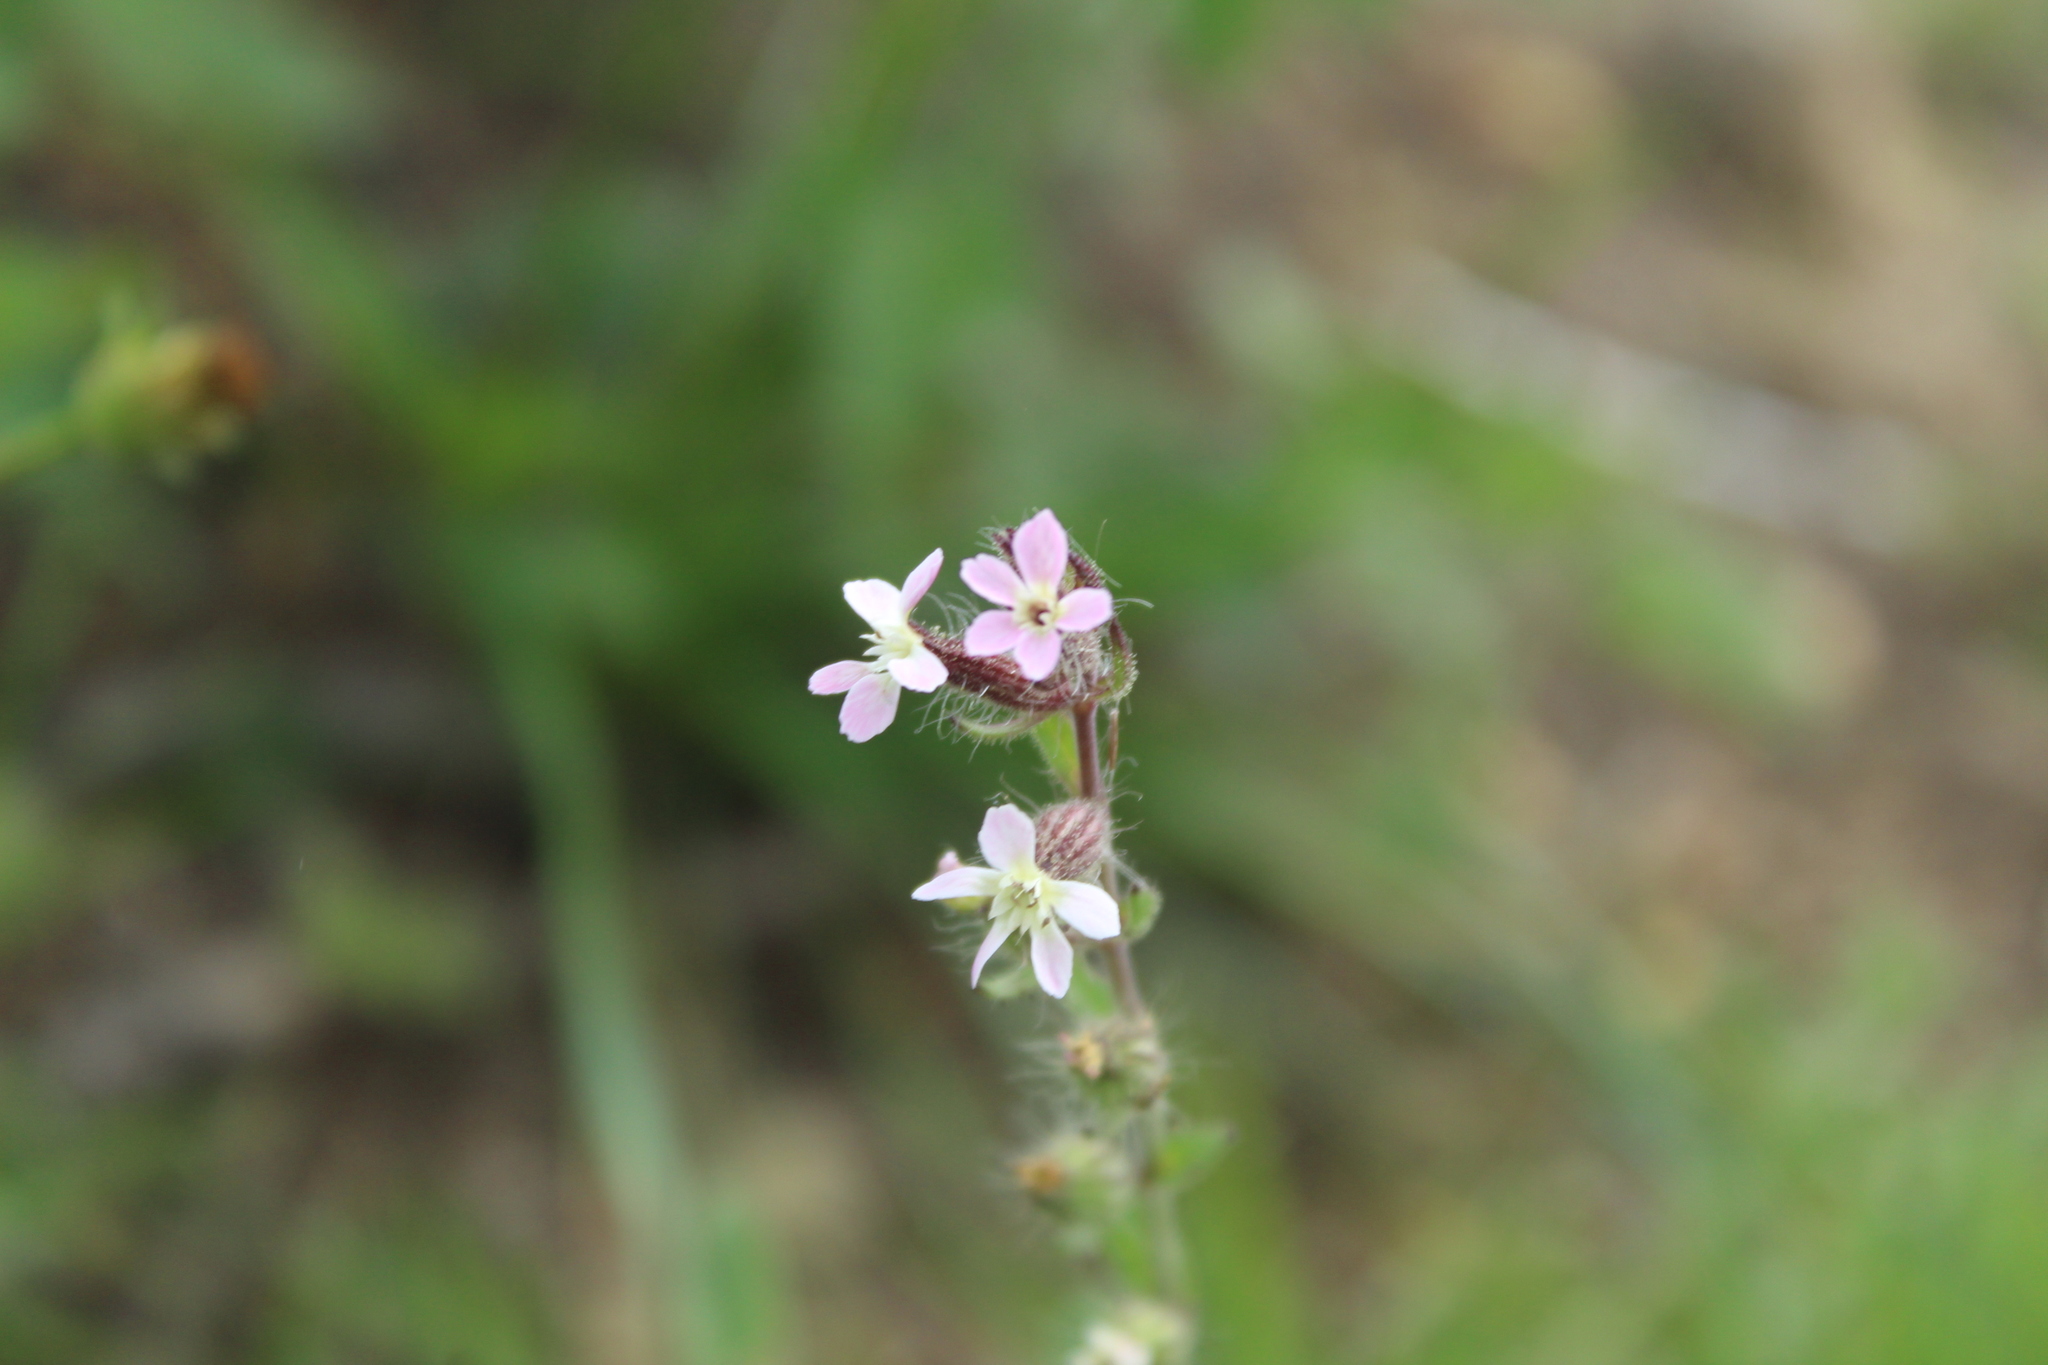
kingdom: Plantae
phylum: Tracheophyta
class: Magnoliopsida
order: Caryophyllales
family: Caryophyllaceae
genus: Silene
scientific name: Silene gallica
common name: Small-flowered catchfly
